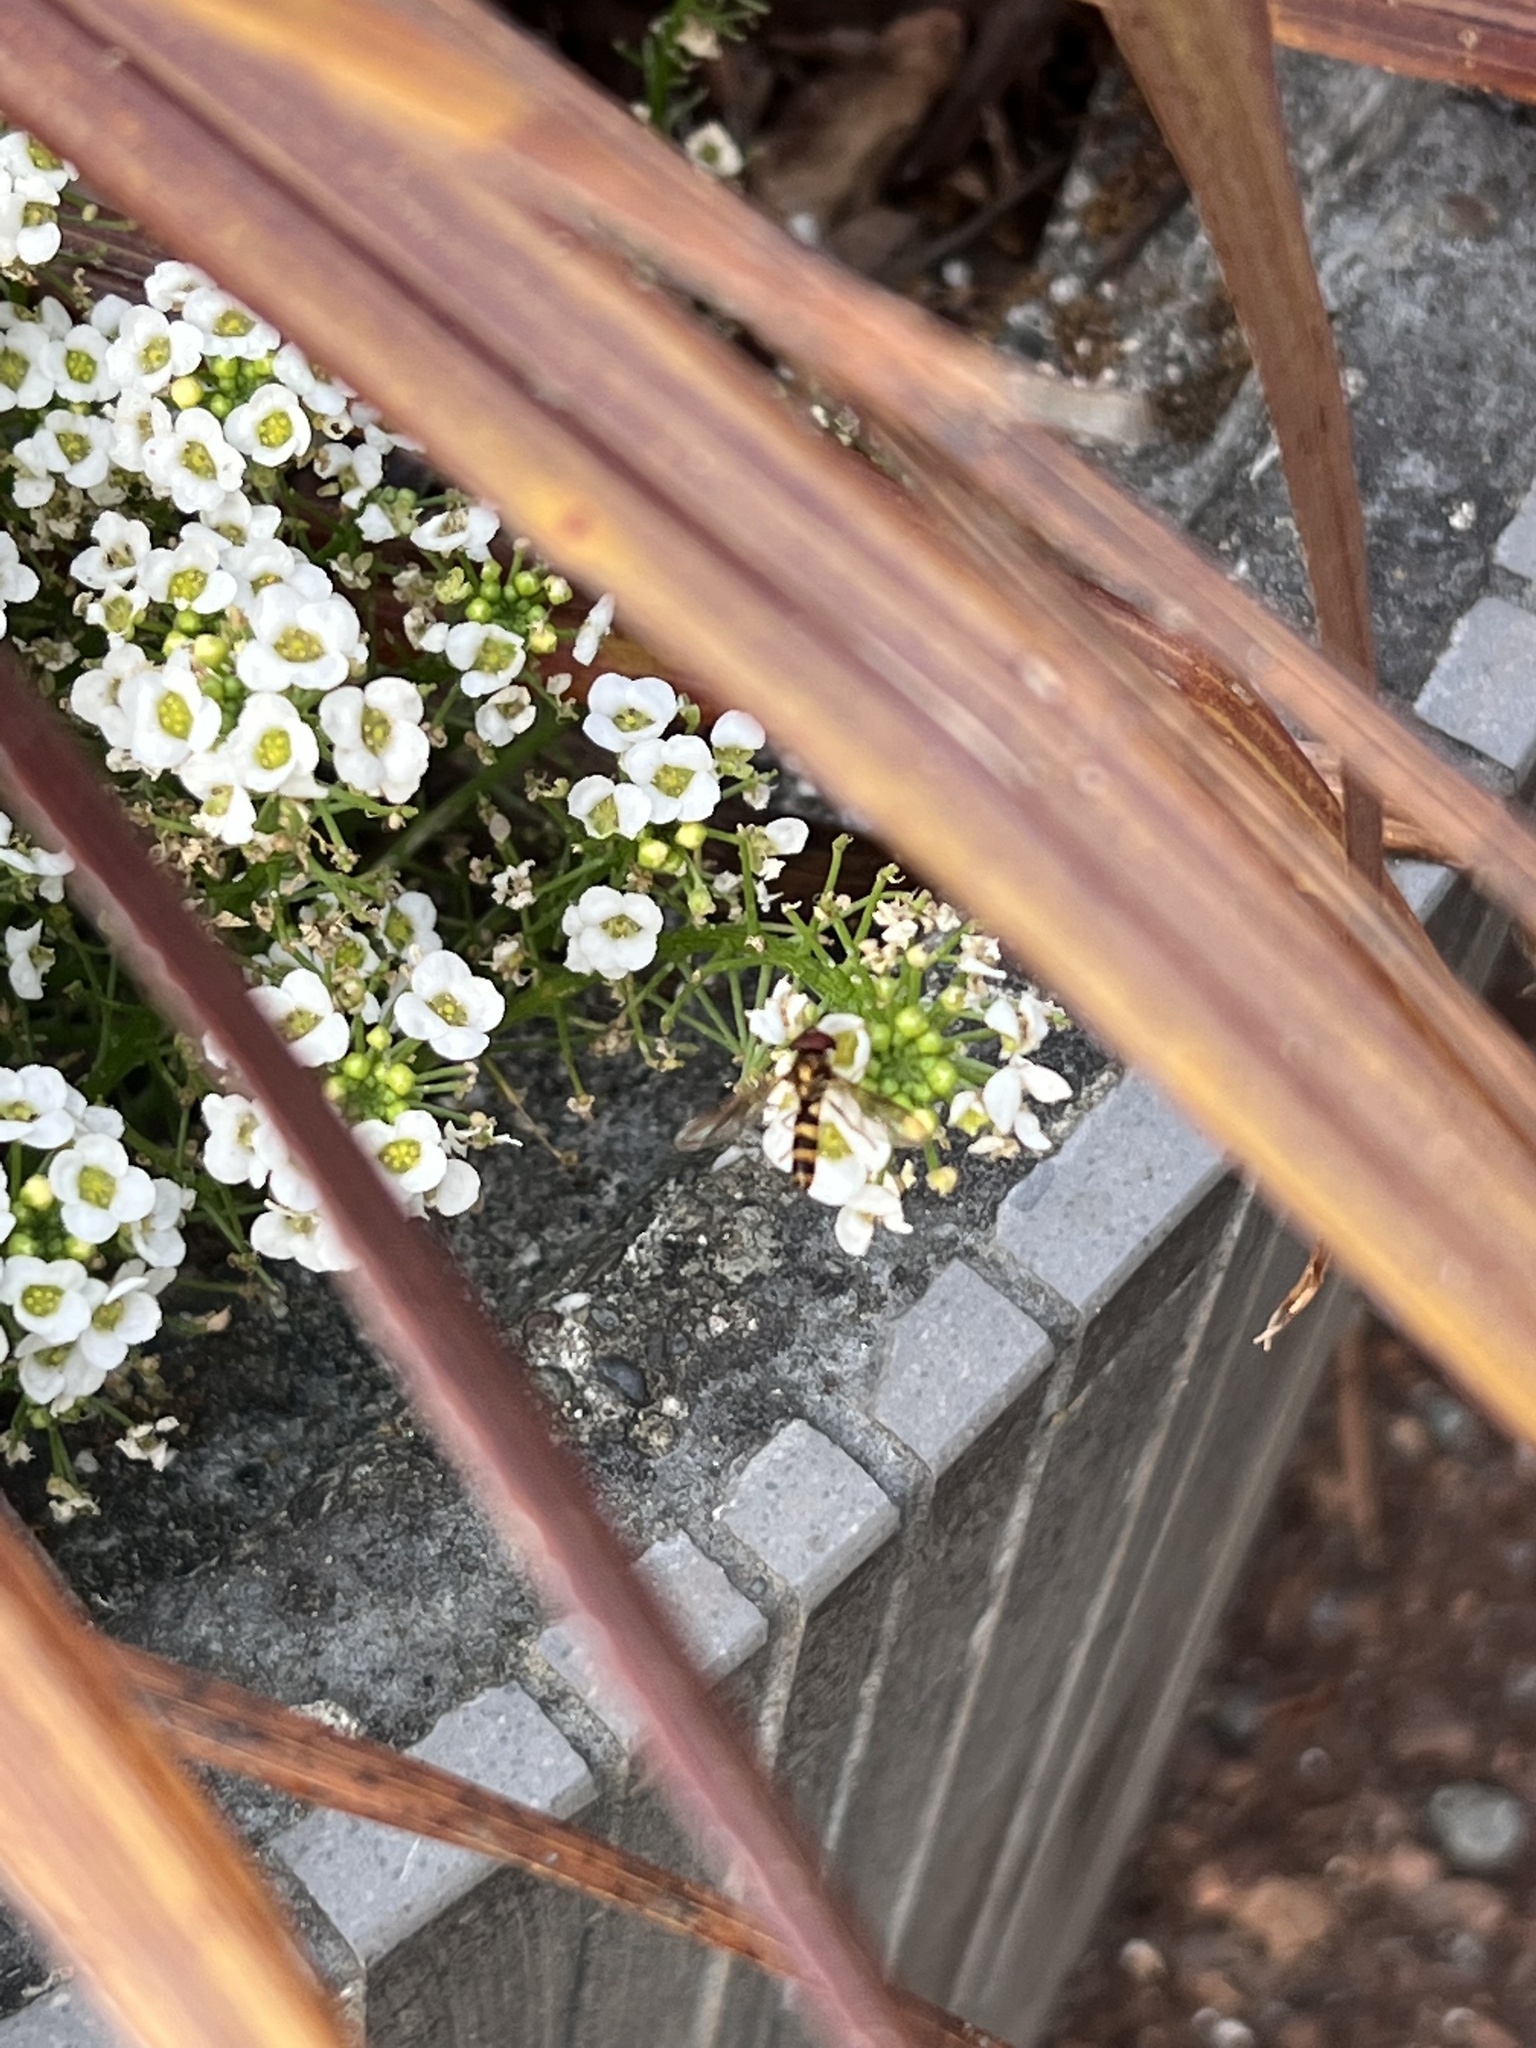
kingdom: Animalia
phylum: Arthropoda
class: Insecta
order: Diptera
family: Syrphidae
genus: Meliscaeva
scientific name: Meliscaeva cinctella
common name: American thintail fly
